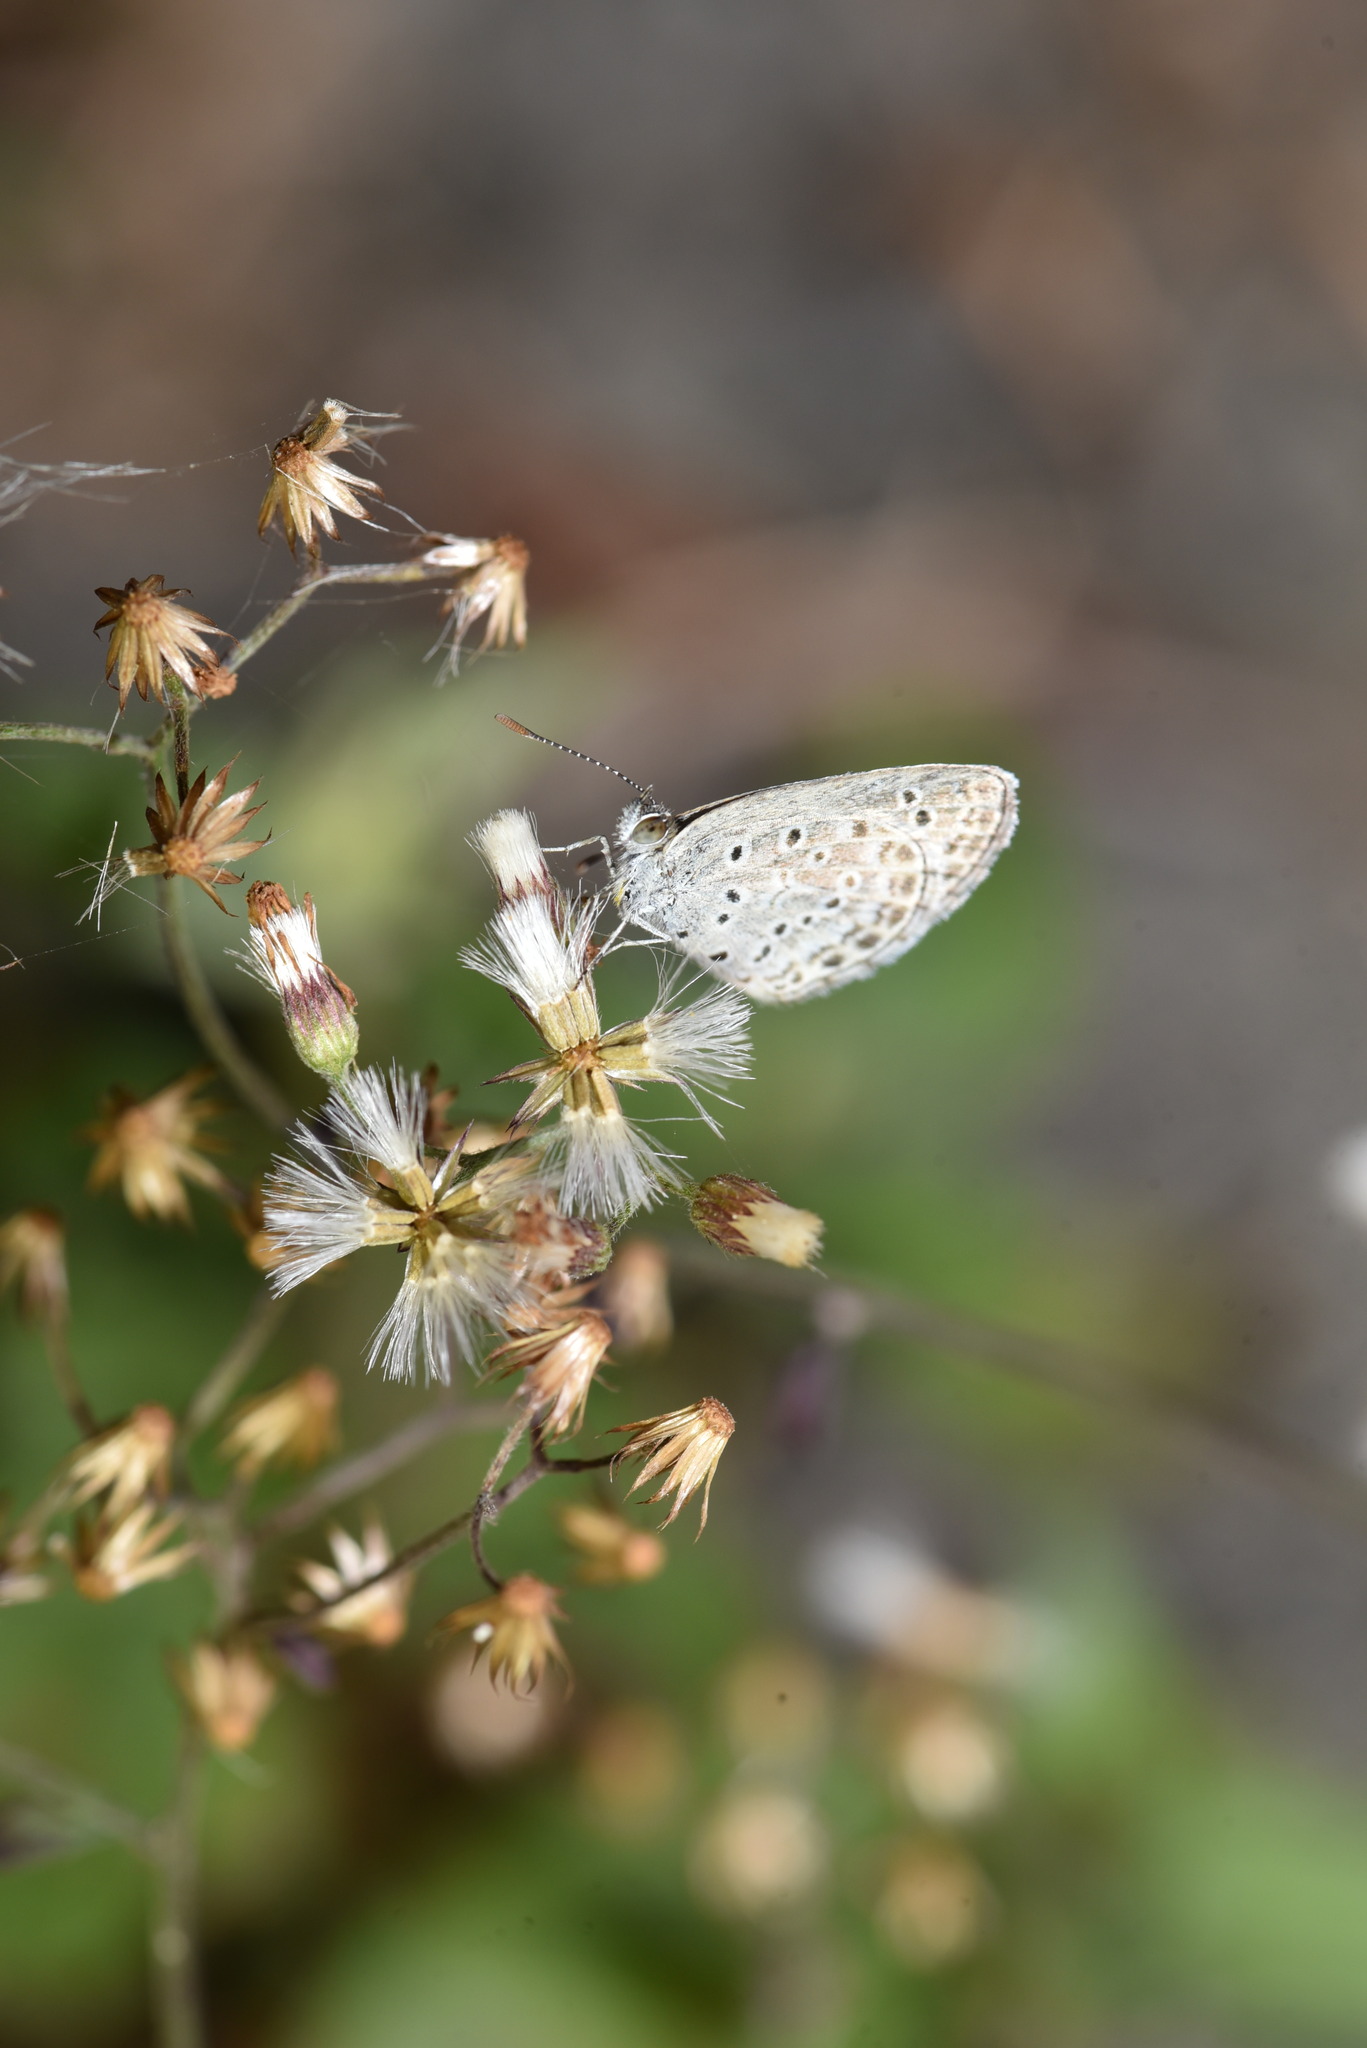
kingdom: Animalia
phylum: Arthropoda
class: Insecta
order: Lepidoptera
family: Lycaenidae
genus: Pseudozizeeria
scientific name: Pseudozizeeria maha
